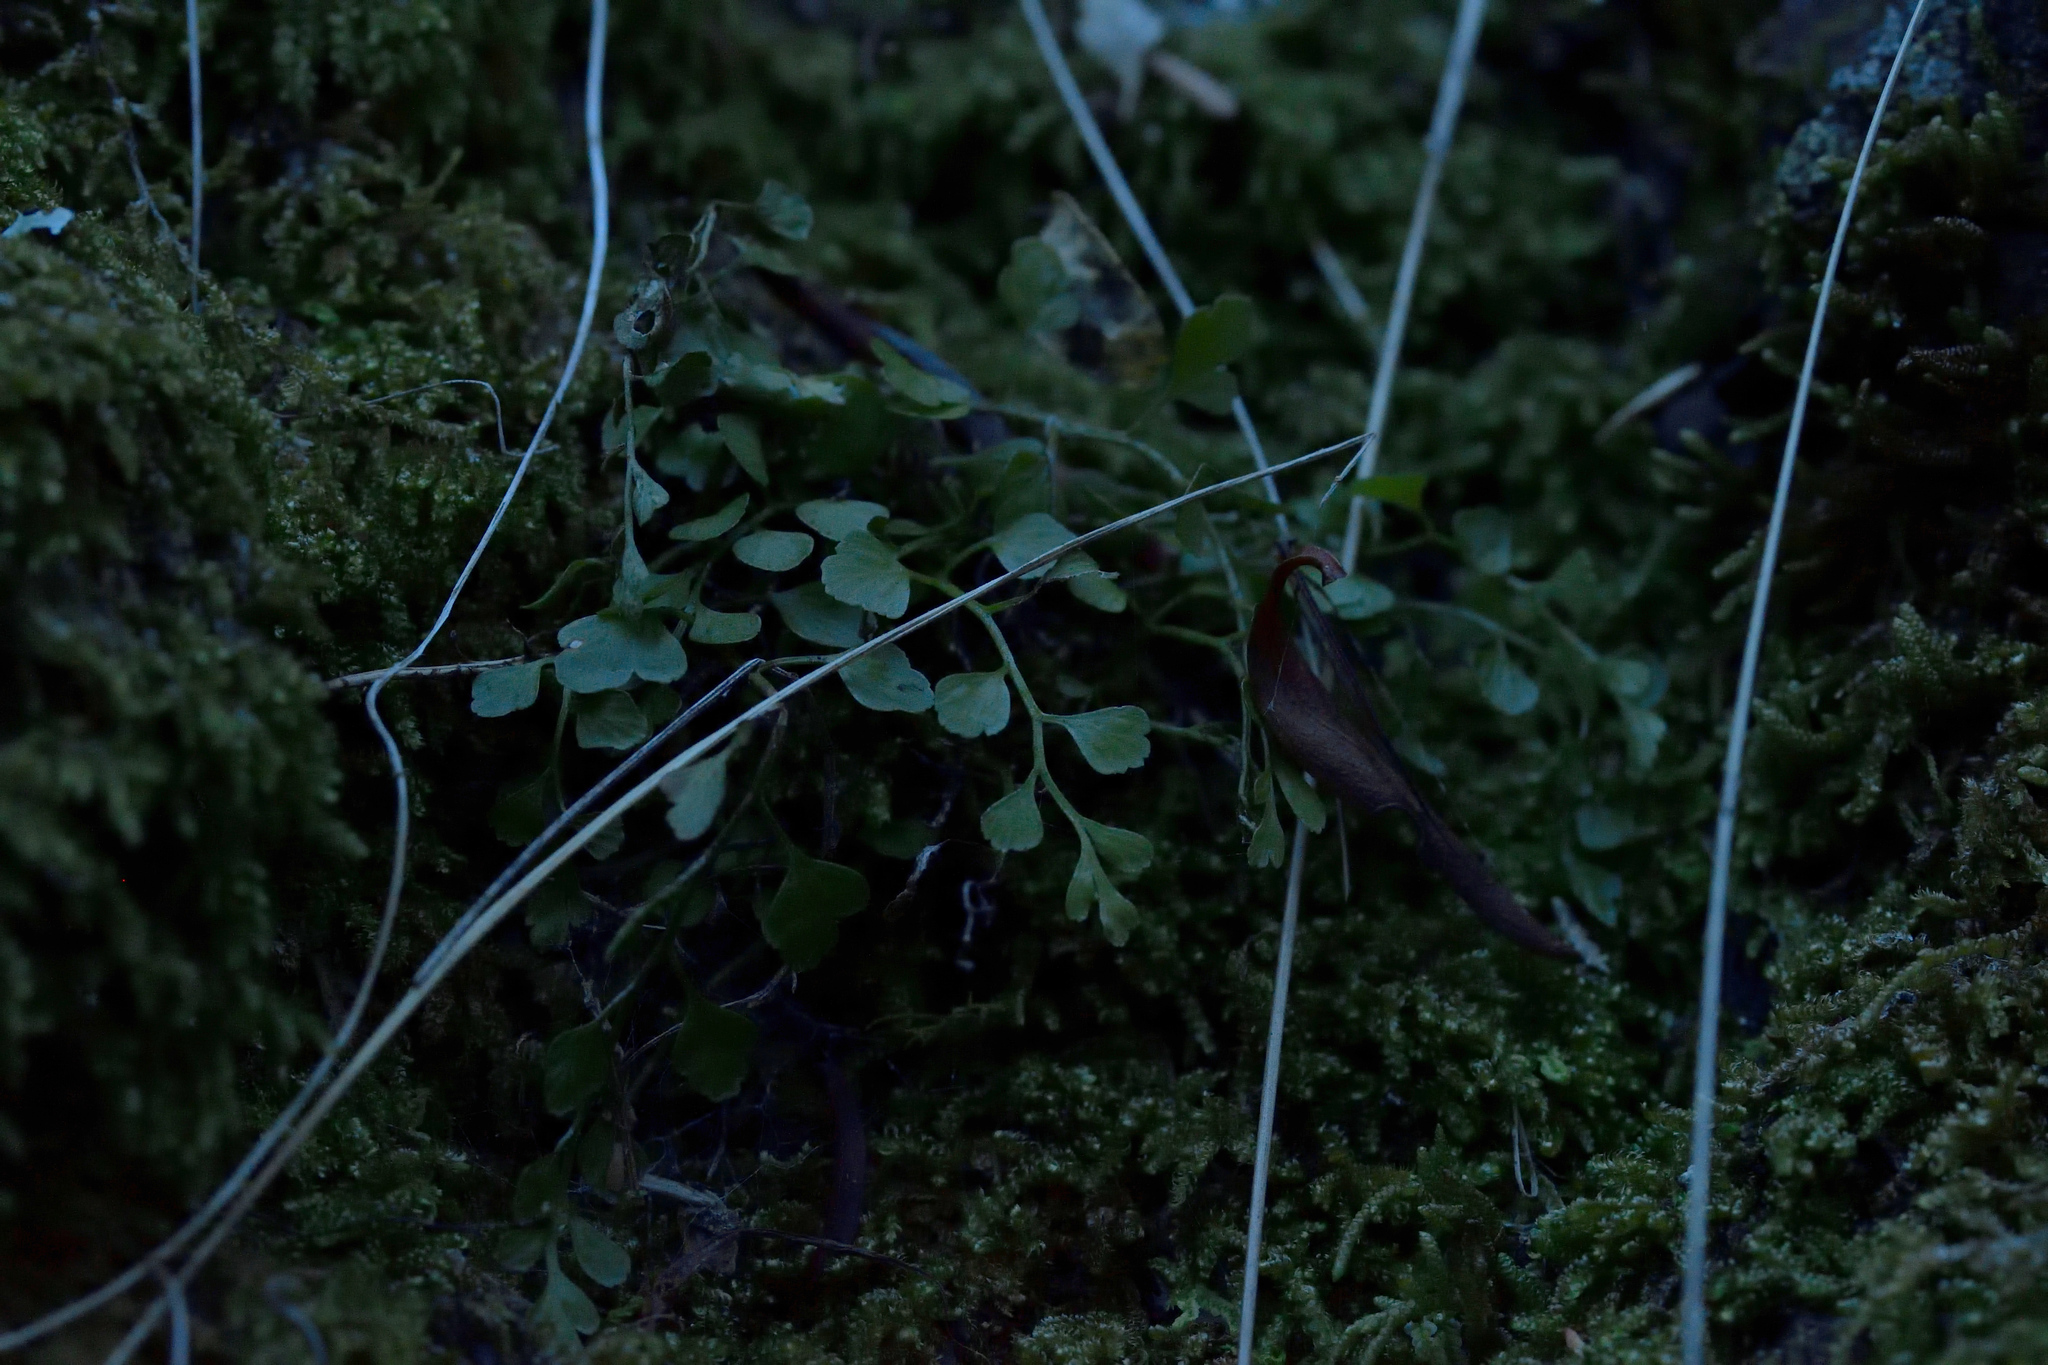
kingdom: Plantae
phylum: Tracheophyta
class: Polypodiopsida
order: Polypodiales
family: Aspleniaceae
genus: Asplenium
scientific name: Asplenium hookerianum
